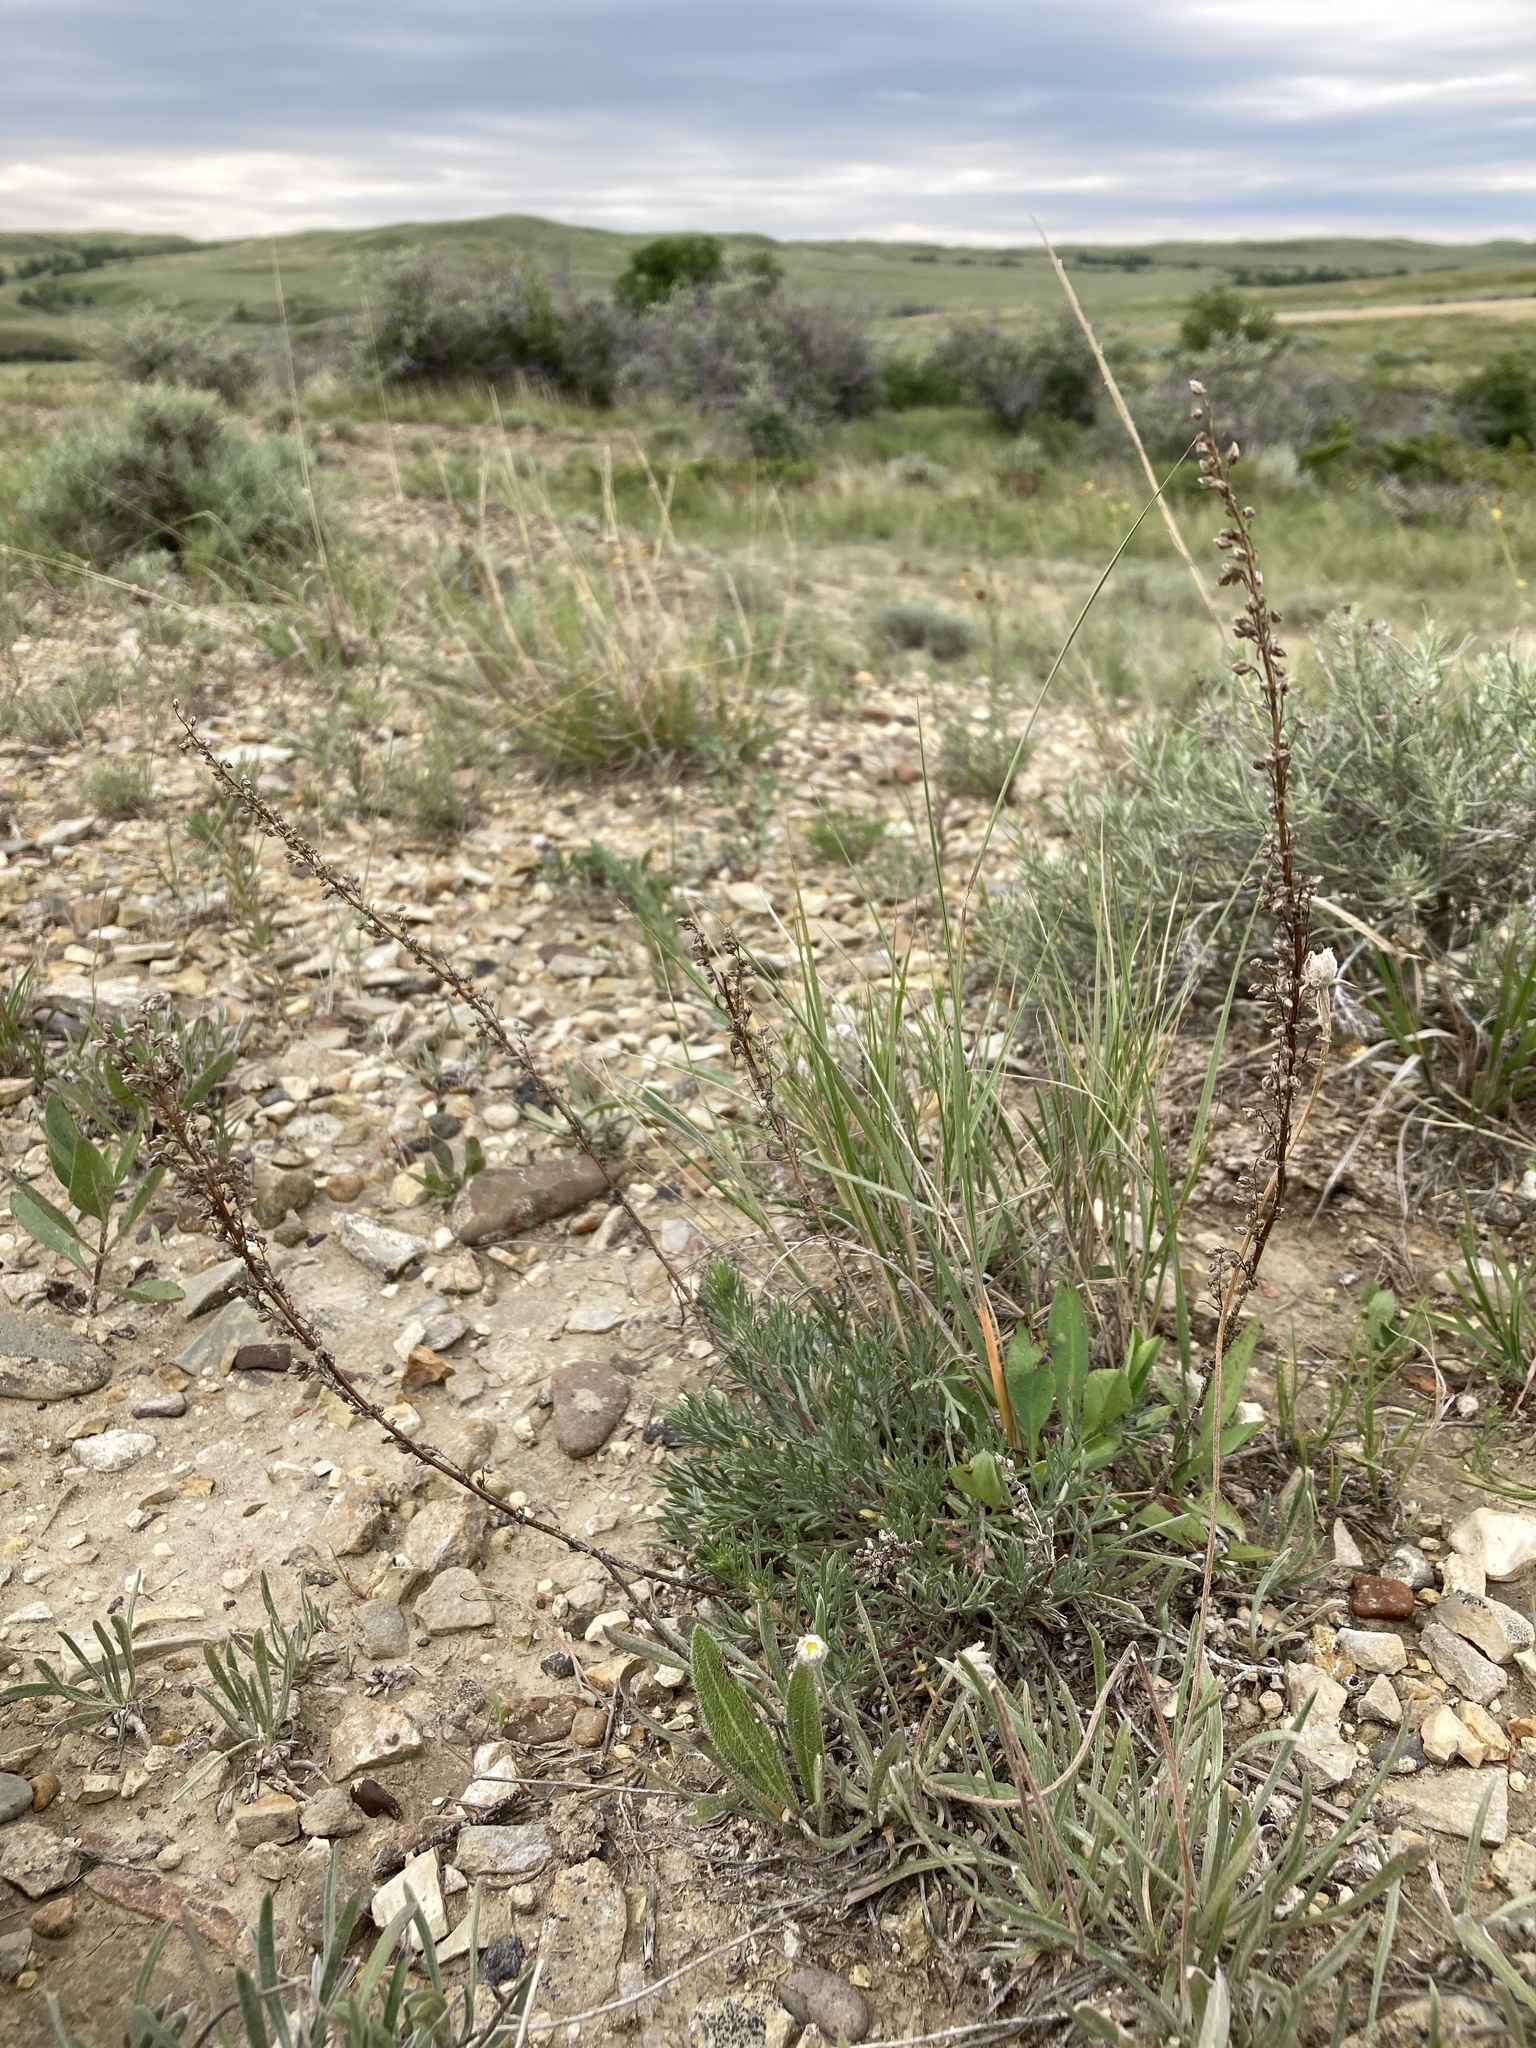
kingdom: Plantae
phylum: Tracheophyta
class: Magnoliopsida
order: Asterales
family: Asteraceae
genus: Artemisia
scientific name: Artemisia campestris
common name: Field wormwood
